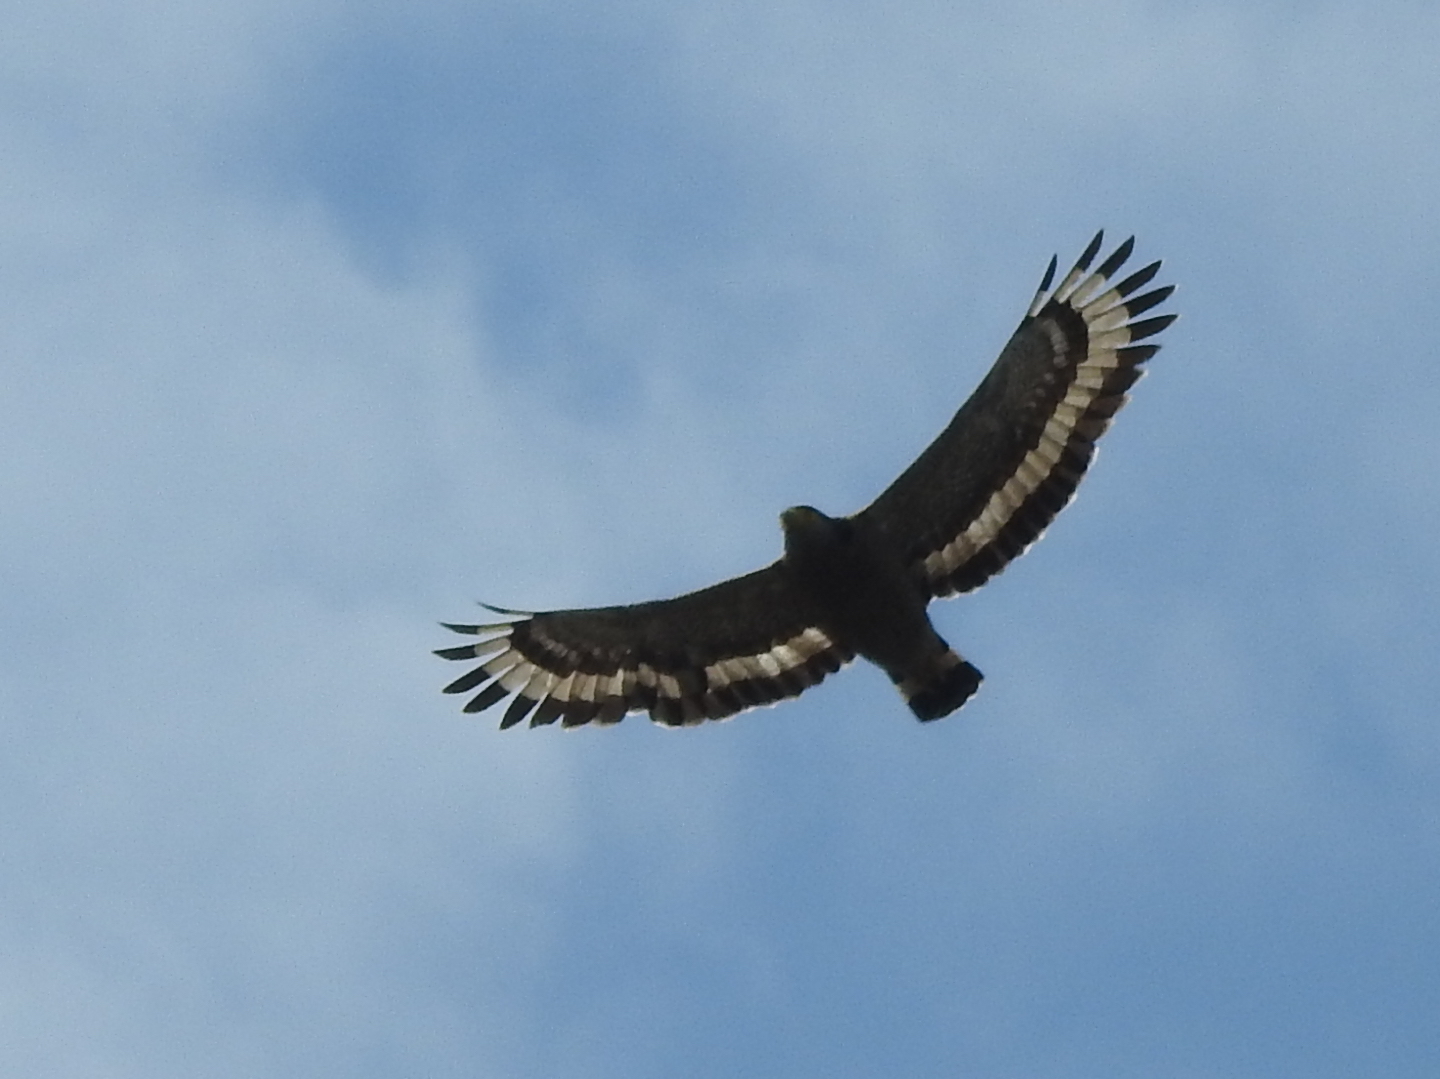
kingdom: Animalia
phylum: Chordata
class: Aves
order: Accipitriformes
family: Accipitridae
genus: Spilornis
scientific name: Spilornis cheela
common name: Crested serpent eagle
